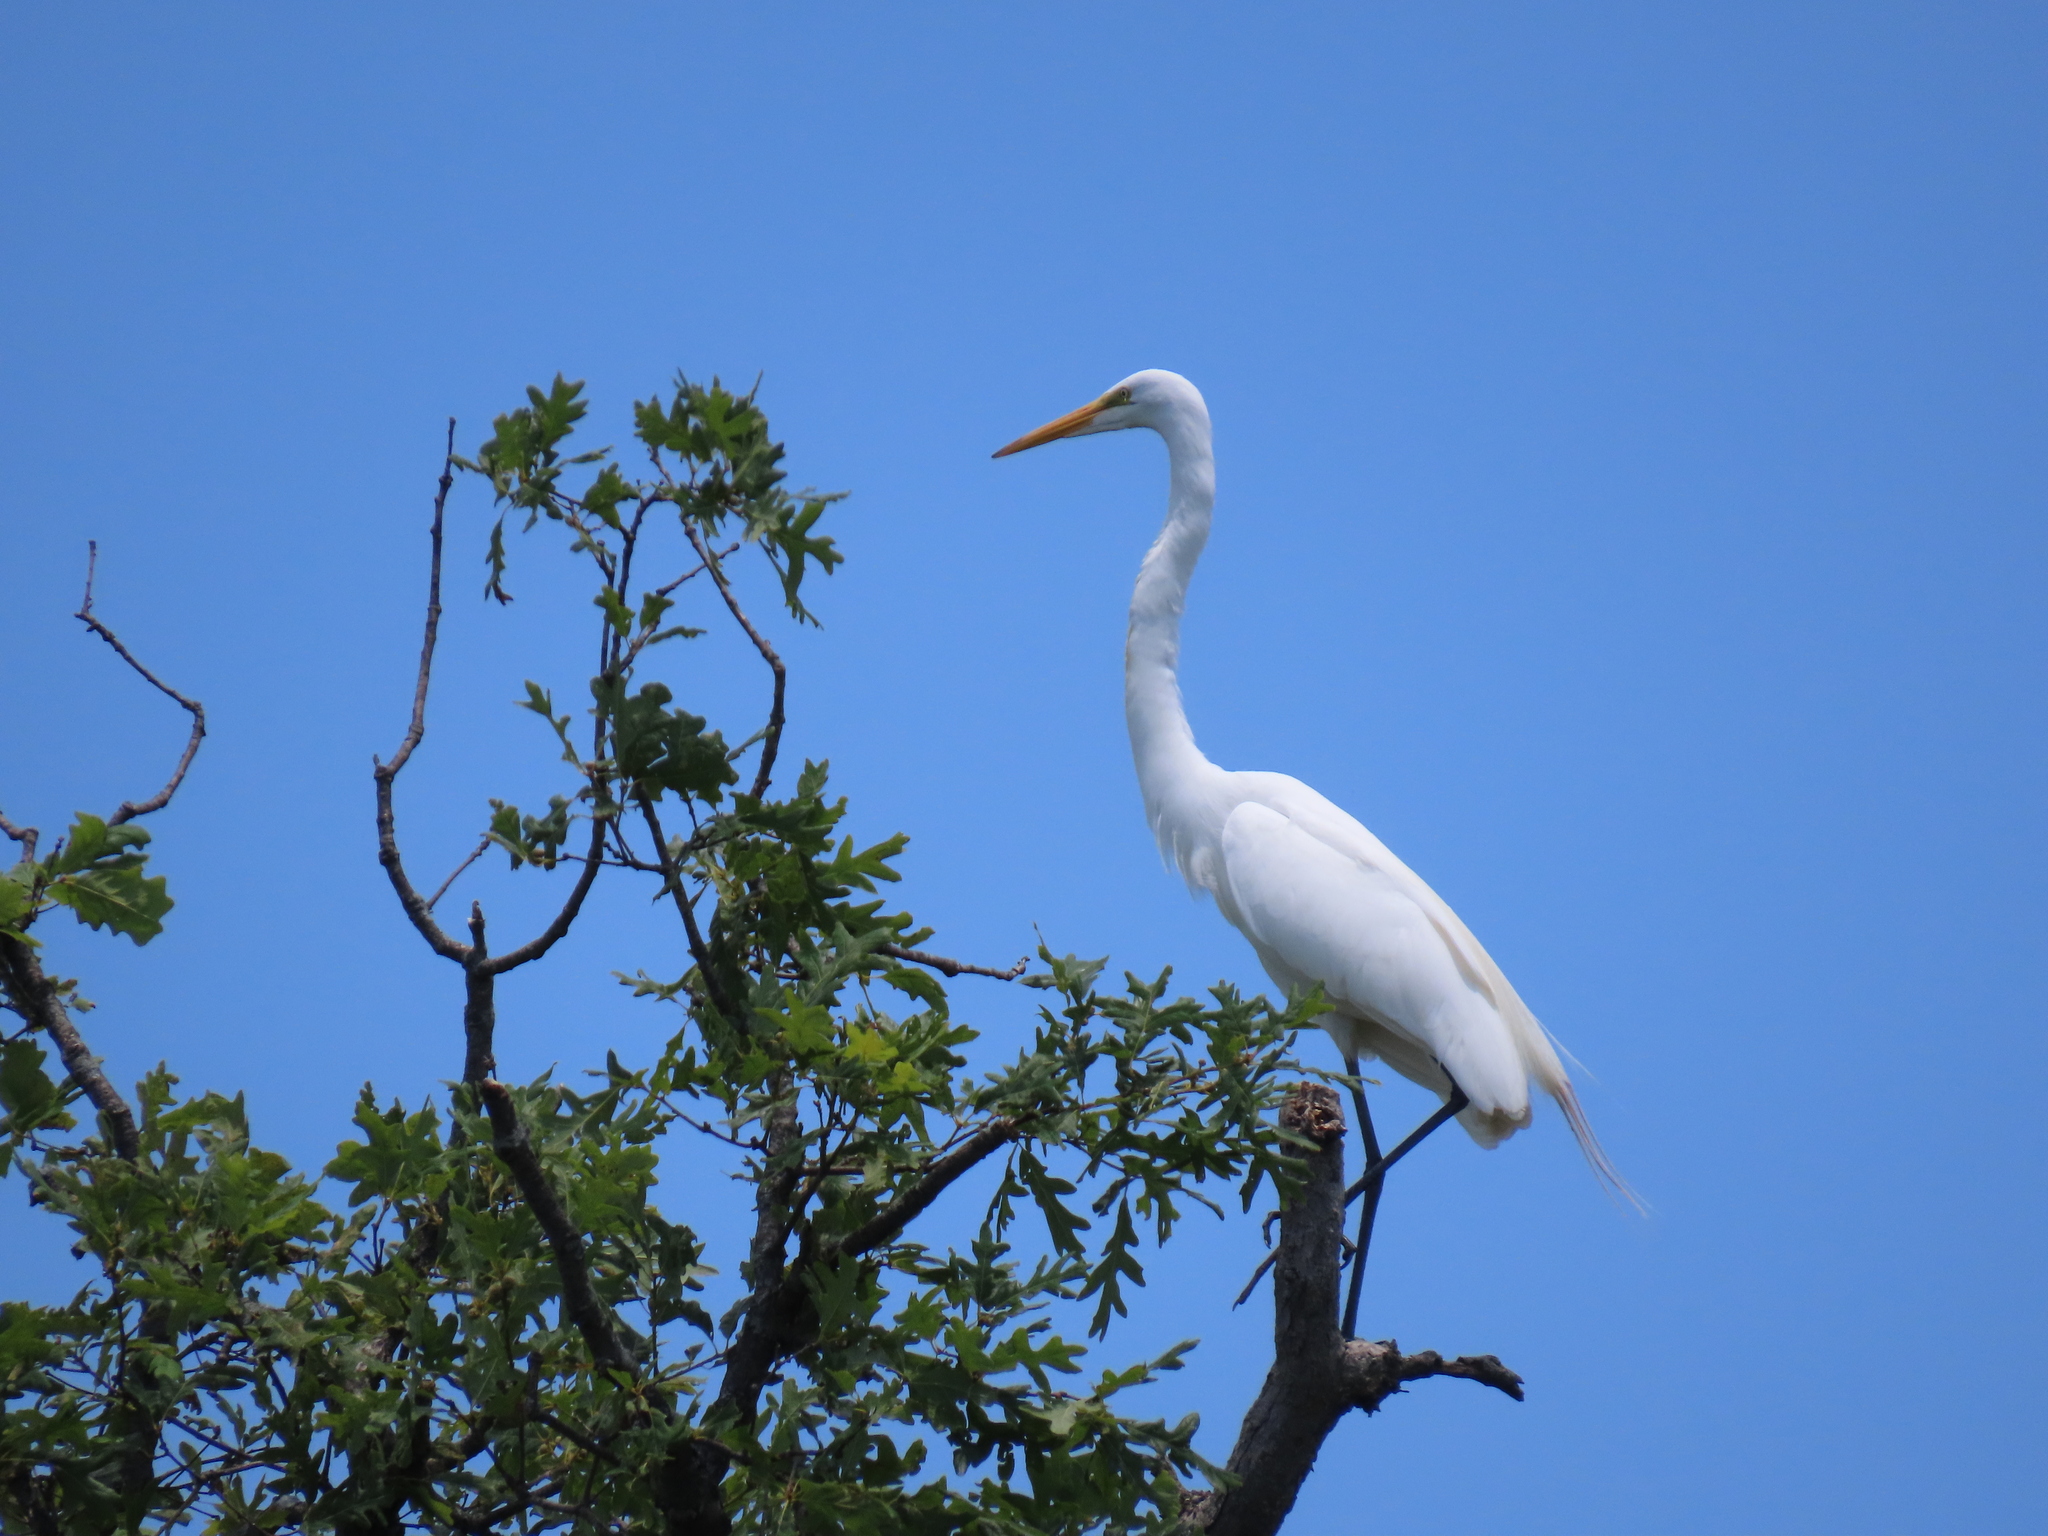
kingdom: Animalia
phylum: Chordata
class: Aves
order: Pelecaniformes
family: Ardeidae
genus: Ardea
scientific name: Ardea alba
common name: Great egret
